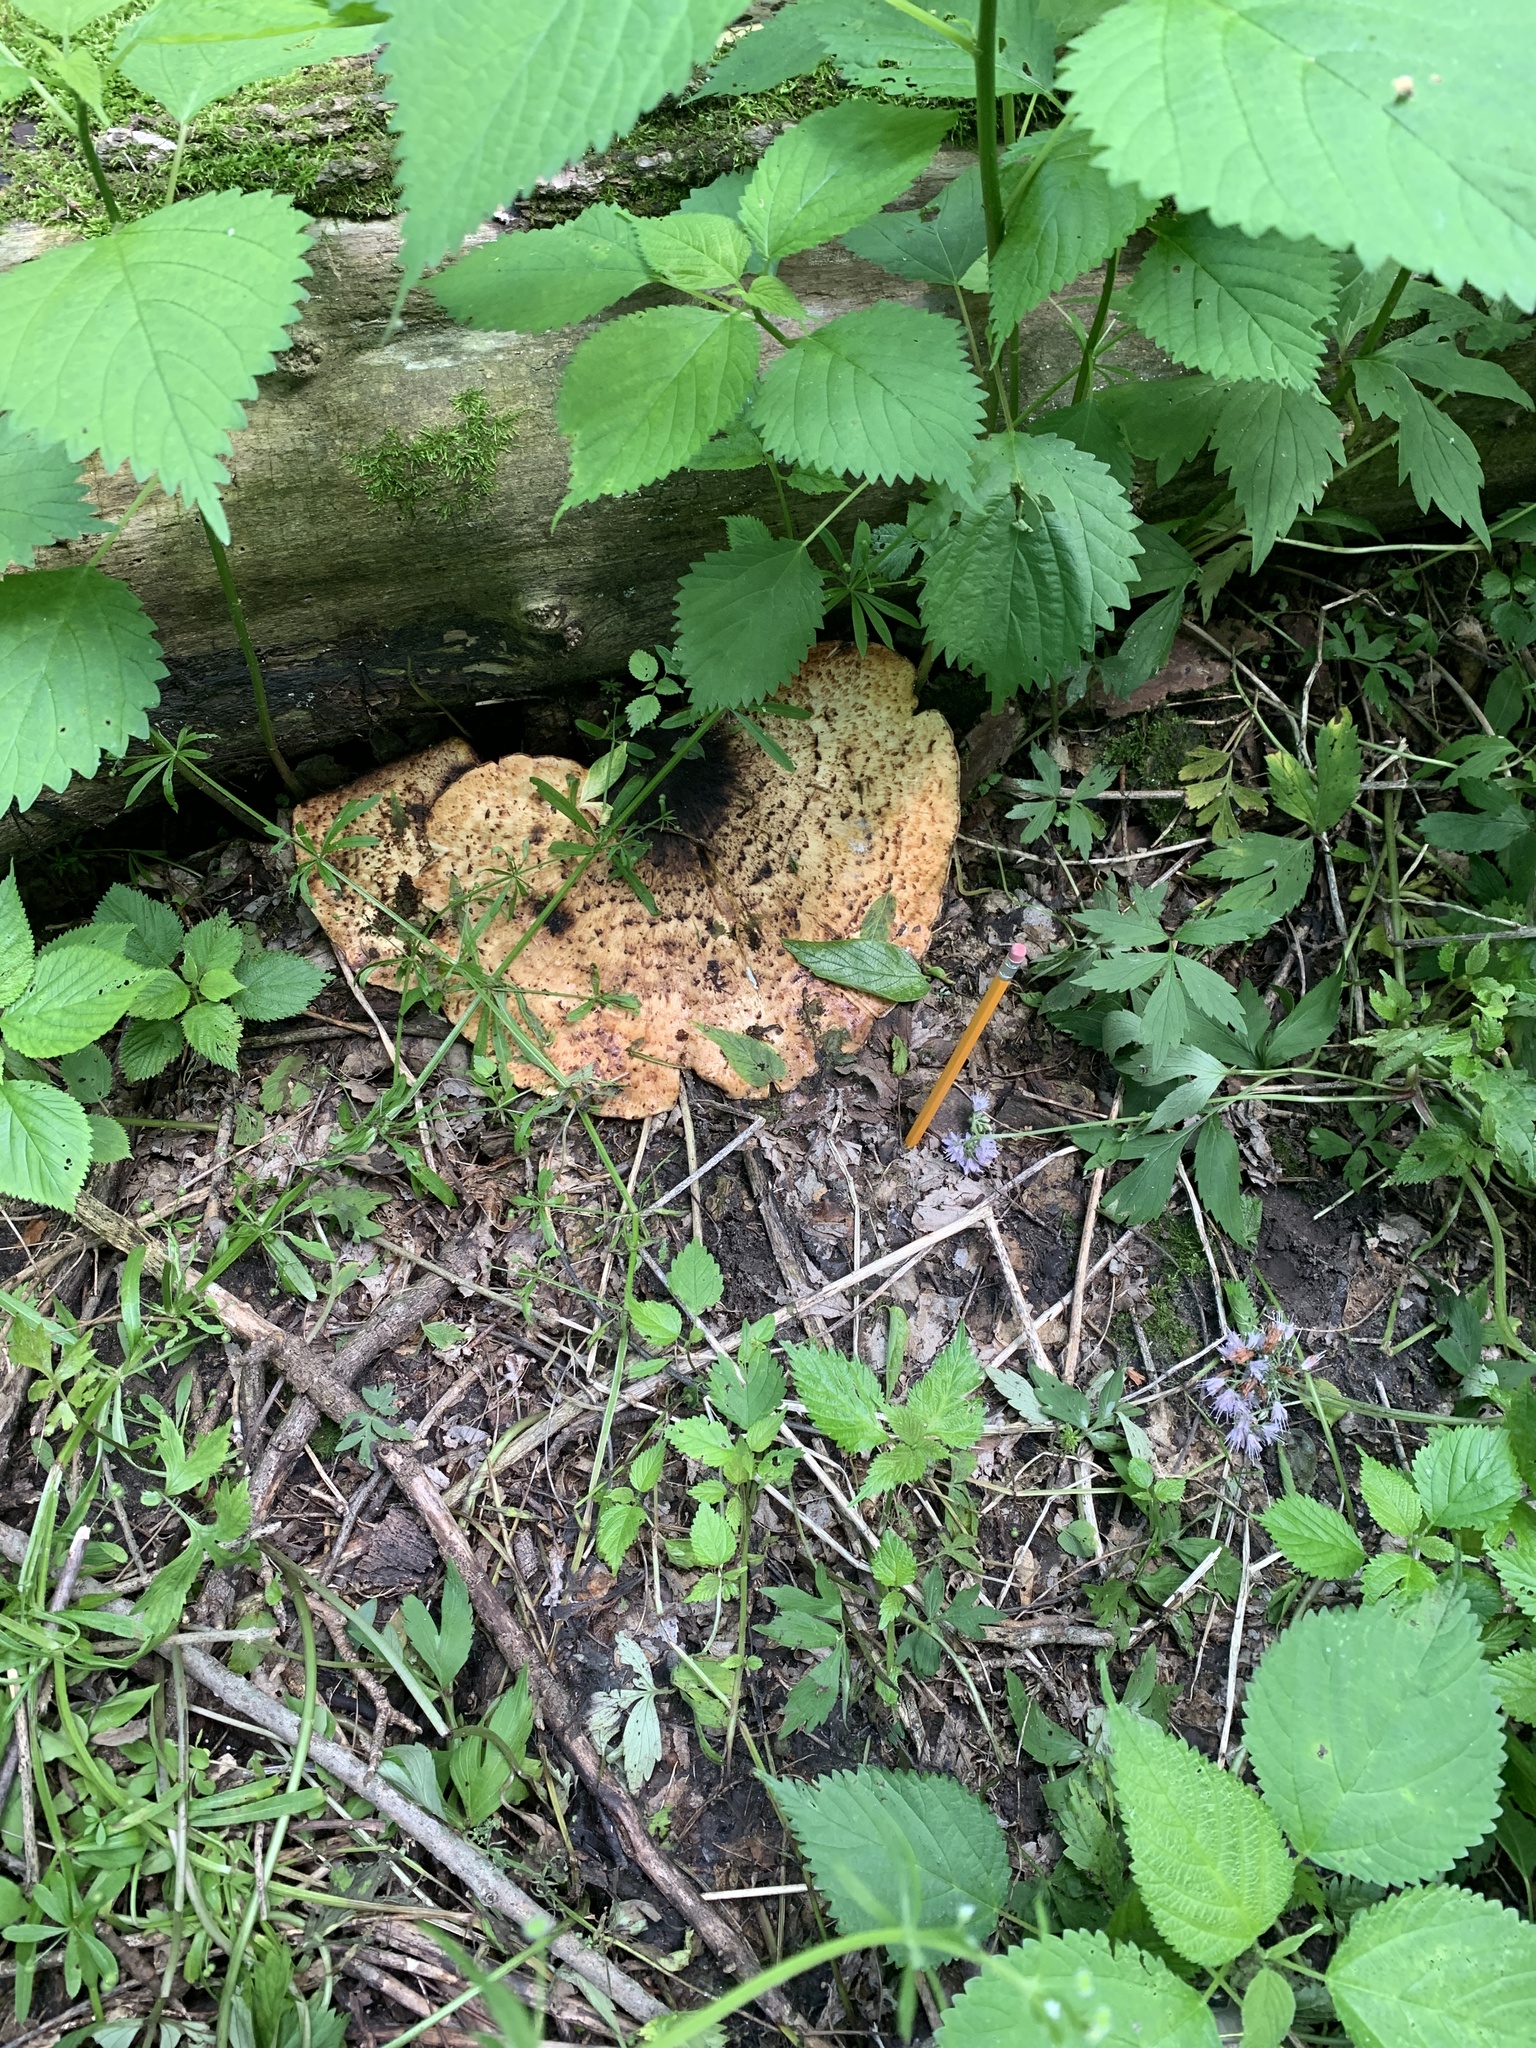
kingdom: Fungi
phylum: Basidiomycota
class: Agaricomycetes
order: Polyporales
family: Polyporaceae
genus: Cerioporus
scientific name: Cerioporus squamosus
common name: Dryad's saddle
